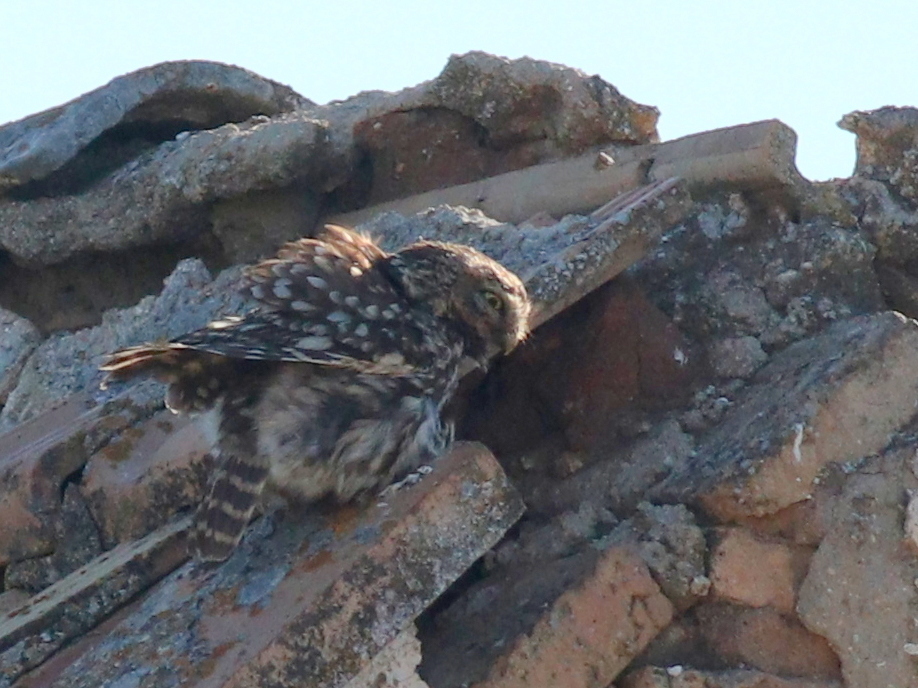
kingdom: Animalia
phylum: Chordata
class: Aves
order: Strigiformes
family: Strigidae
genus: Athene
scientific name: Athene noctua
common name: Little owl
